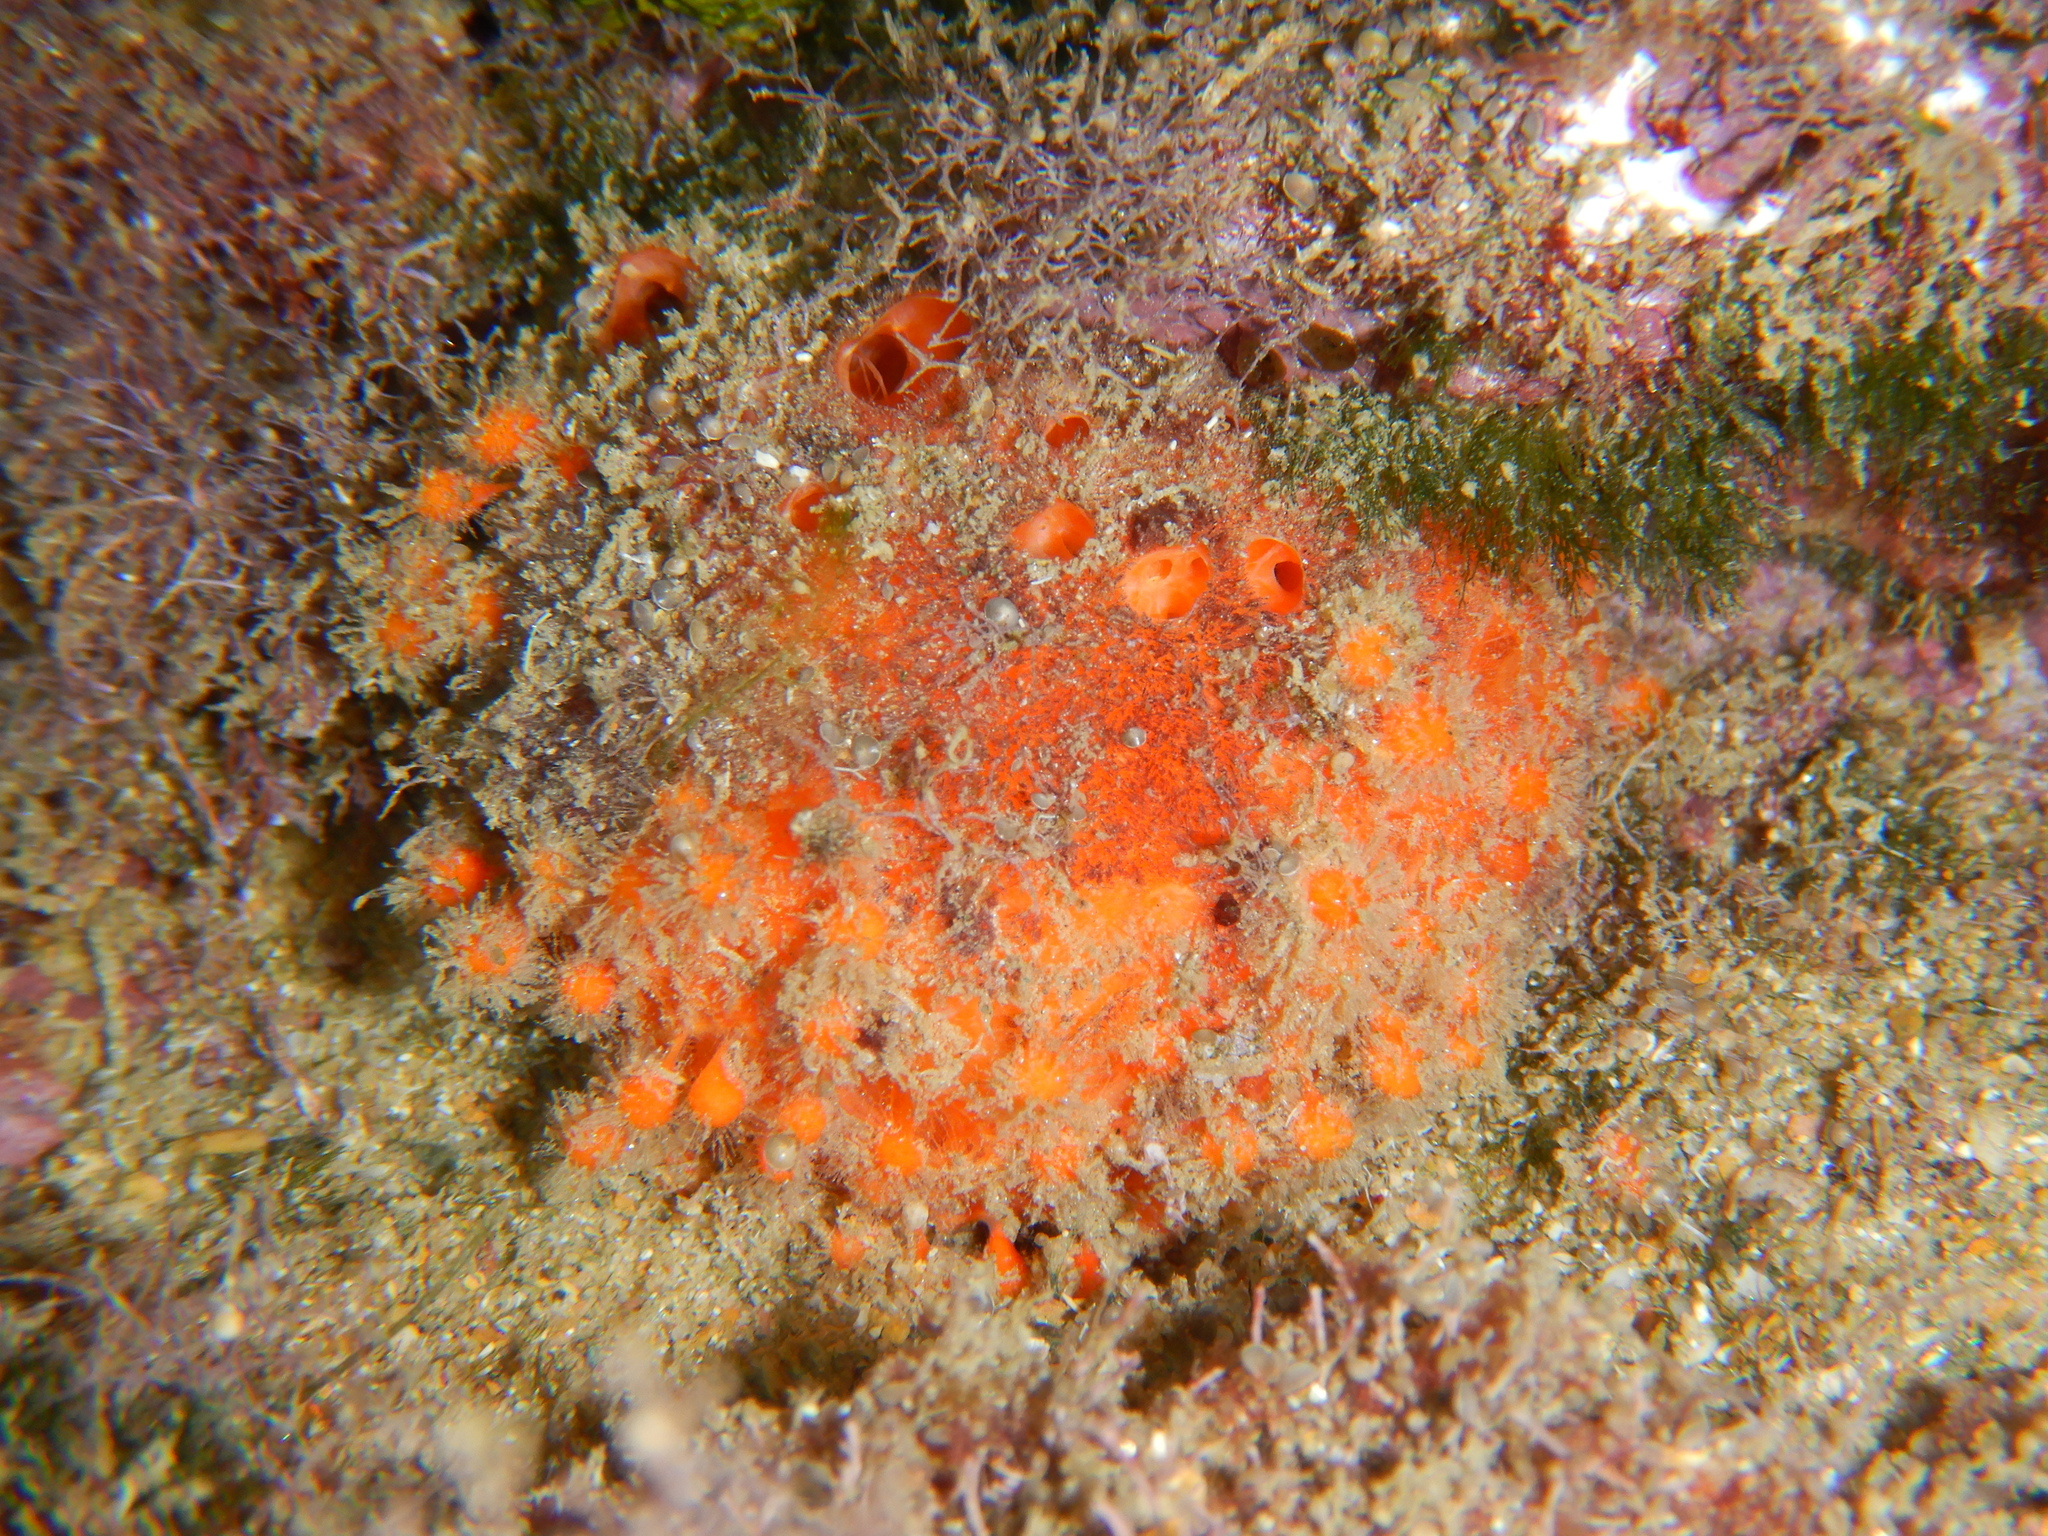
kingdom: Animalia
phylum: Porifera
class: Demospongiae
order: Tethyida
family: Tethyidae
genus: Tethya
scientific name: Tethya aurantium
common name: Golf ball sponge
